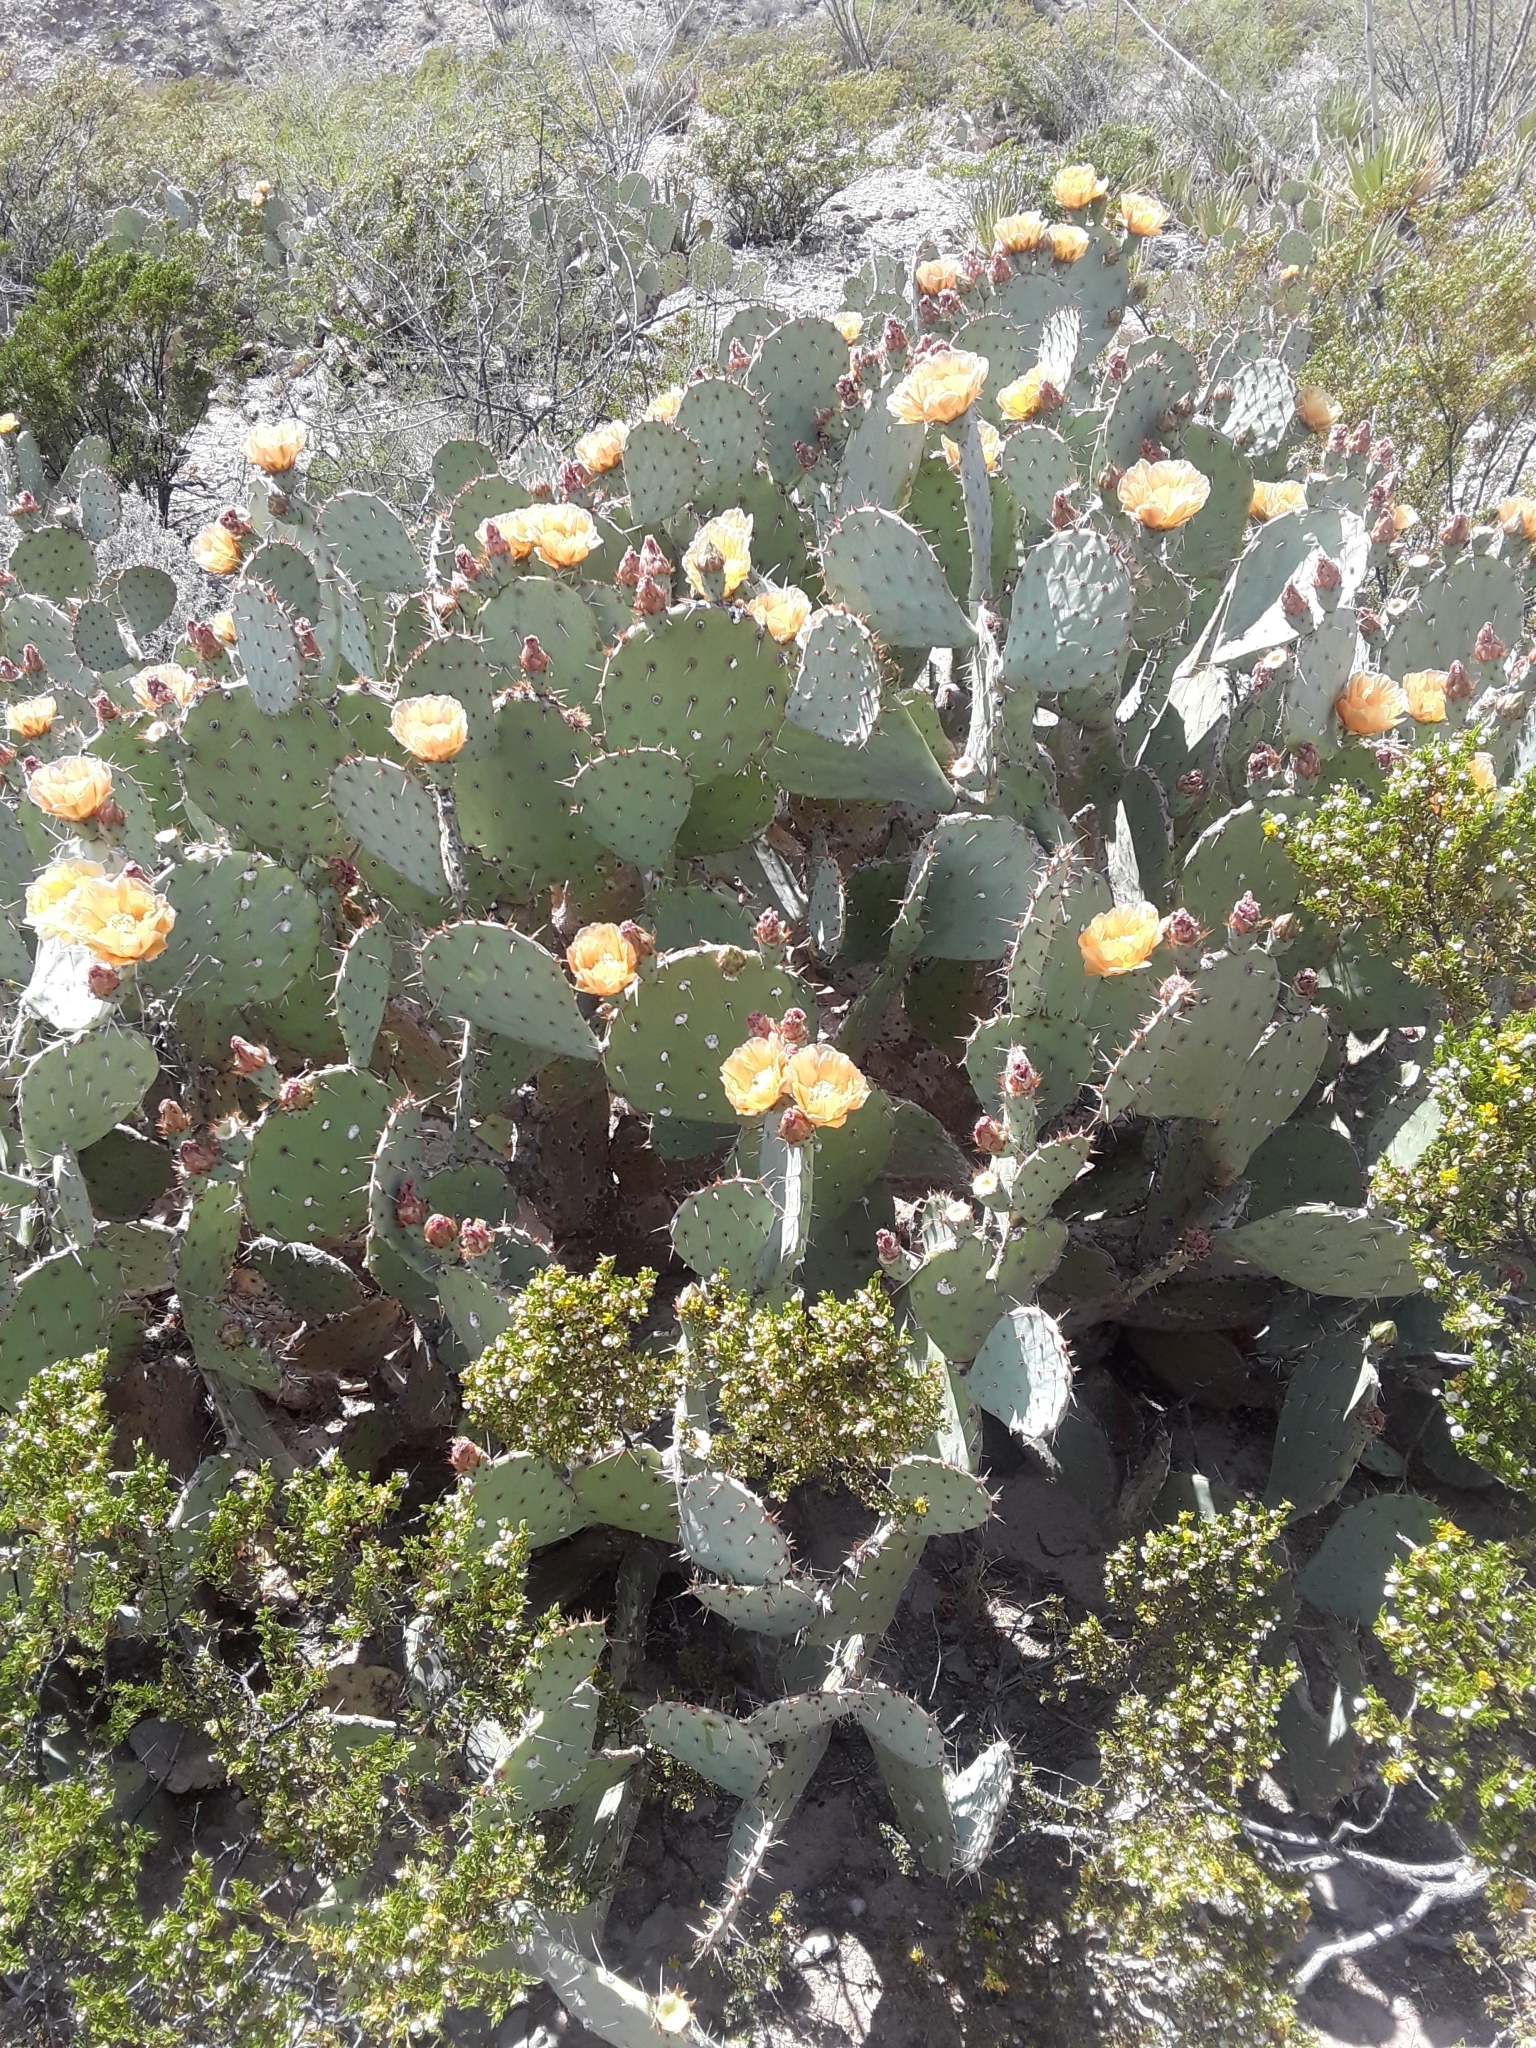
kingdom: Plantae
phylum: Tracheophyta
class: Magnoliopsida
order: Caryophyllales
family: Cactaceae
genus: Opuntia
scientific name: Opuntia orbiculata
